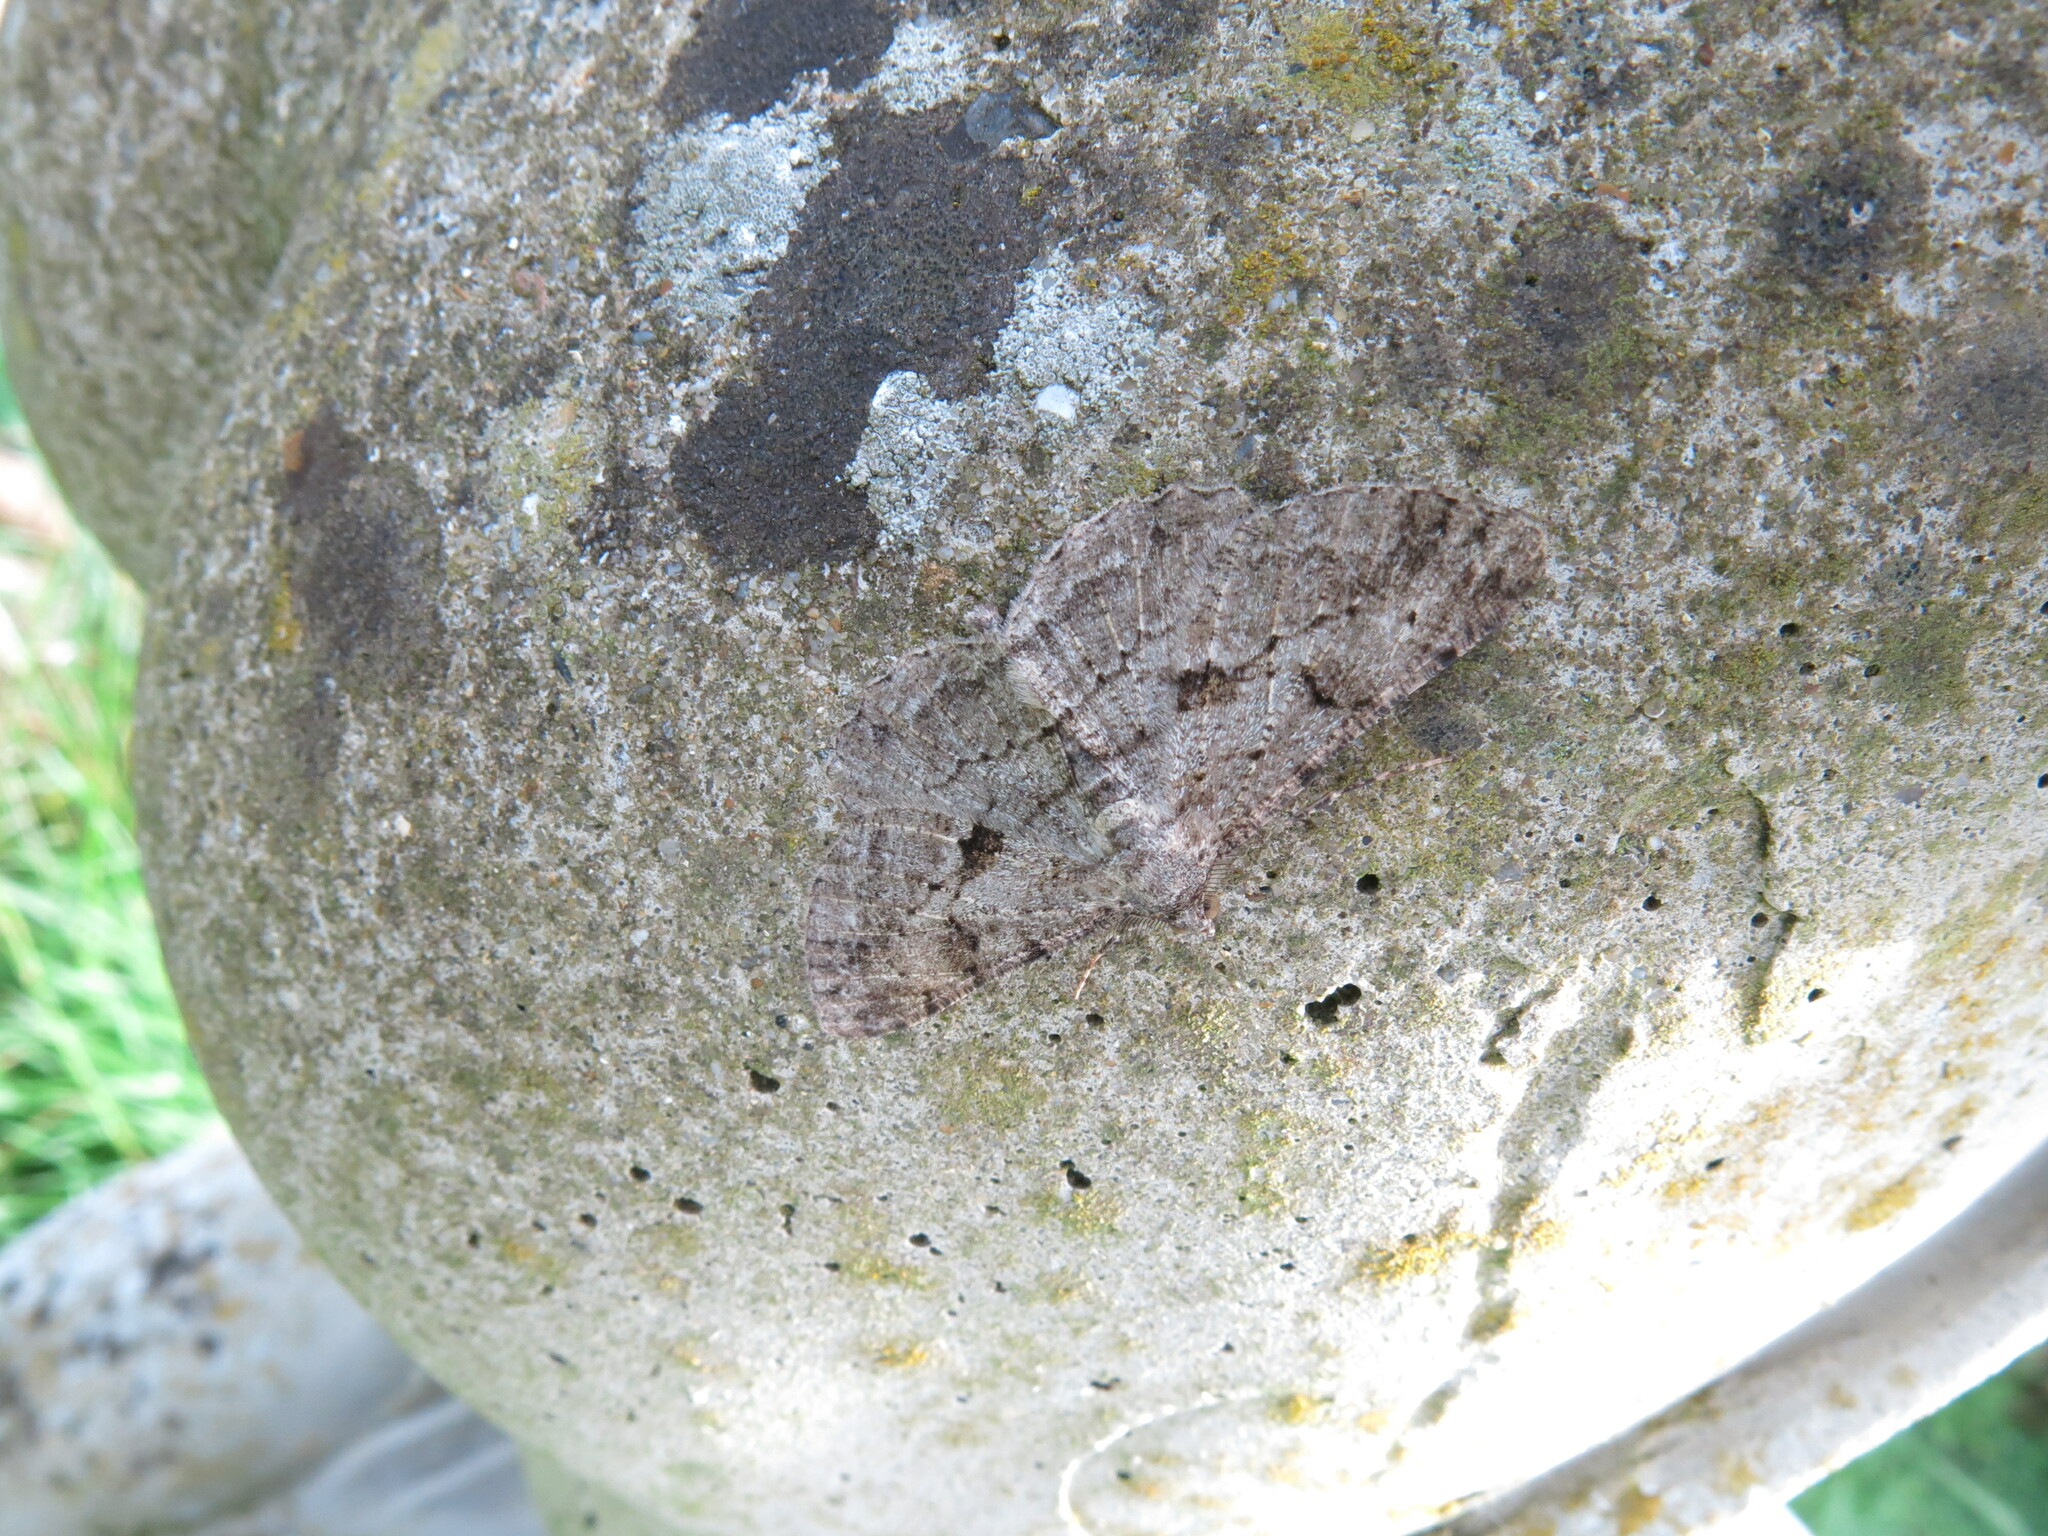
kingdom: Animalia
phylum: Arthropoda
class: Insecta
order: Lepidoptera
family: Geometridae
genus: Peribatodes
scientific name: Peribatodes rhomboidaria
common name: Willow beauty
